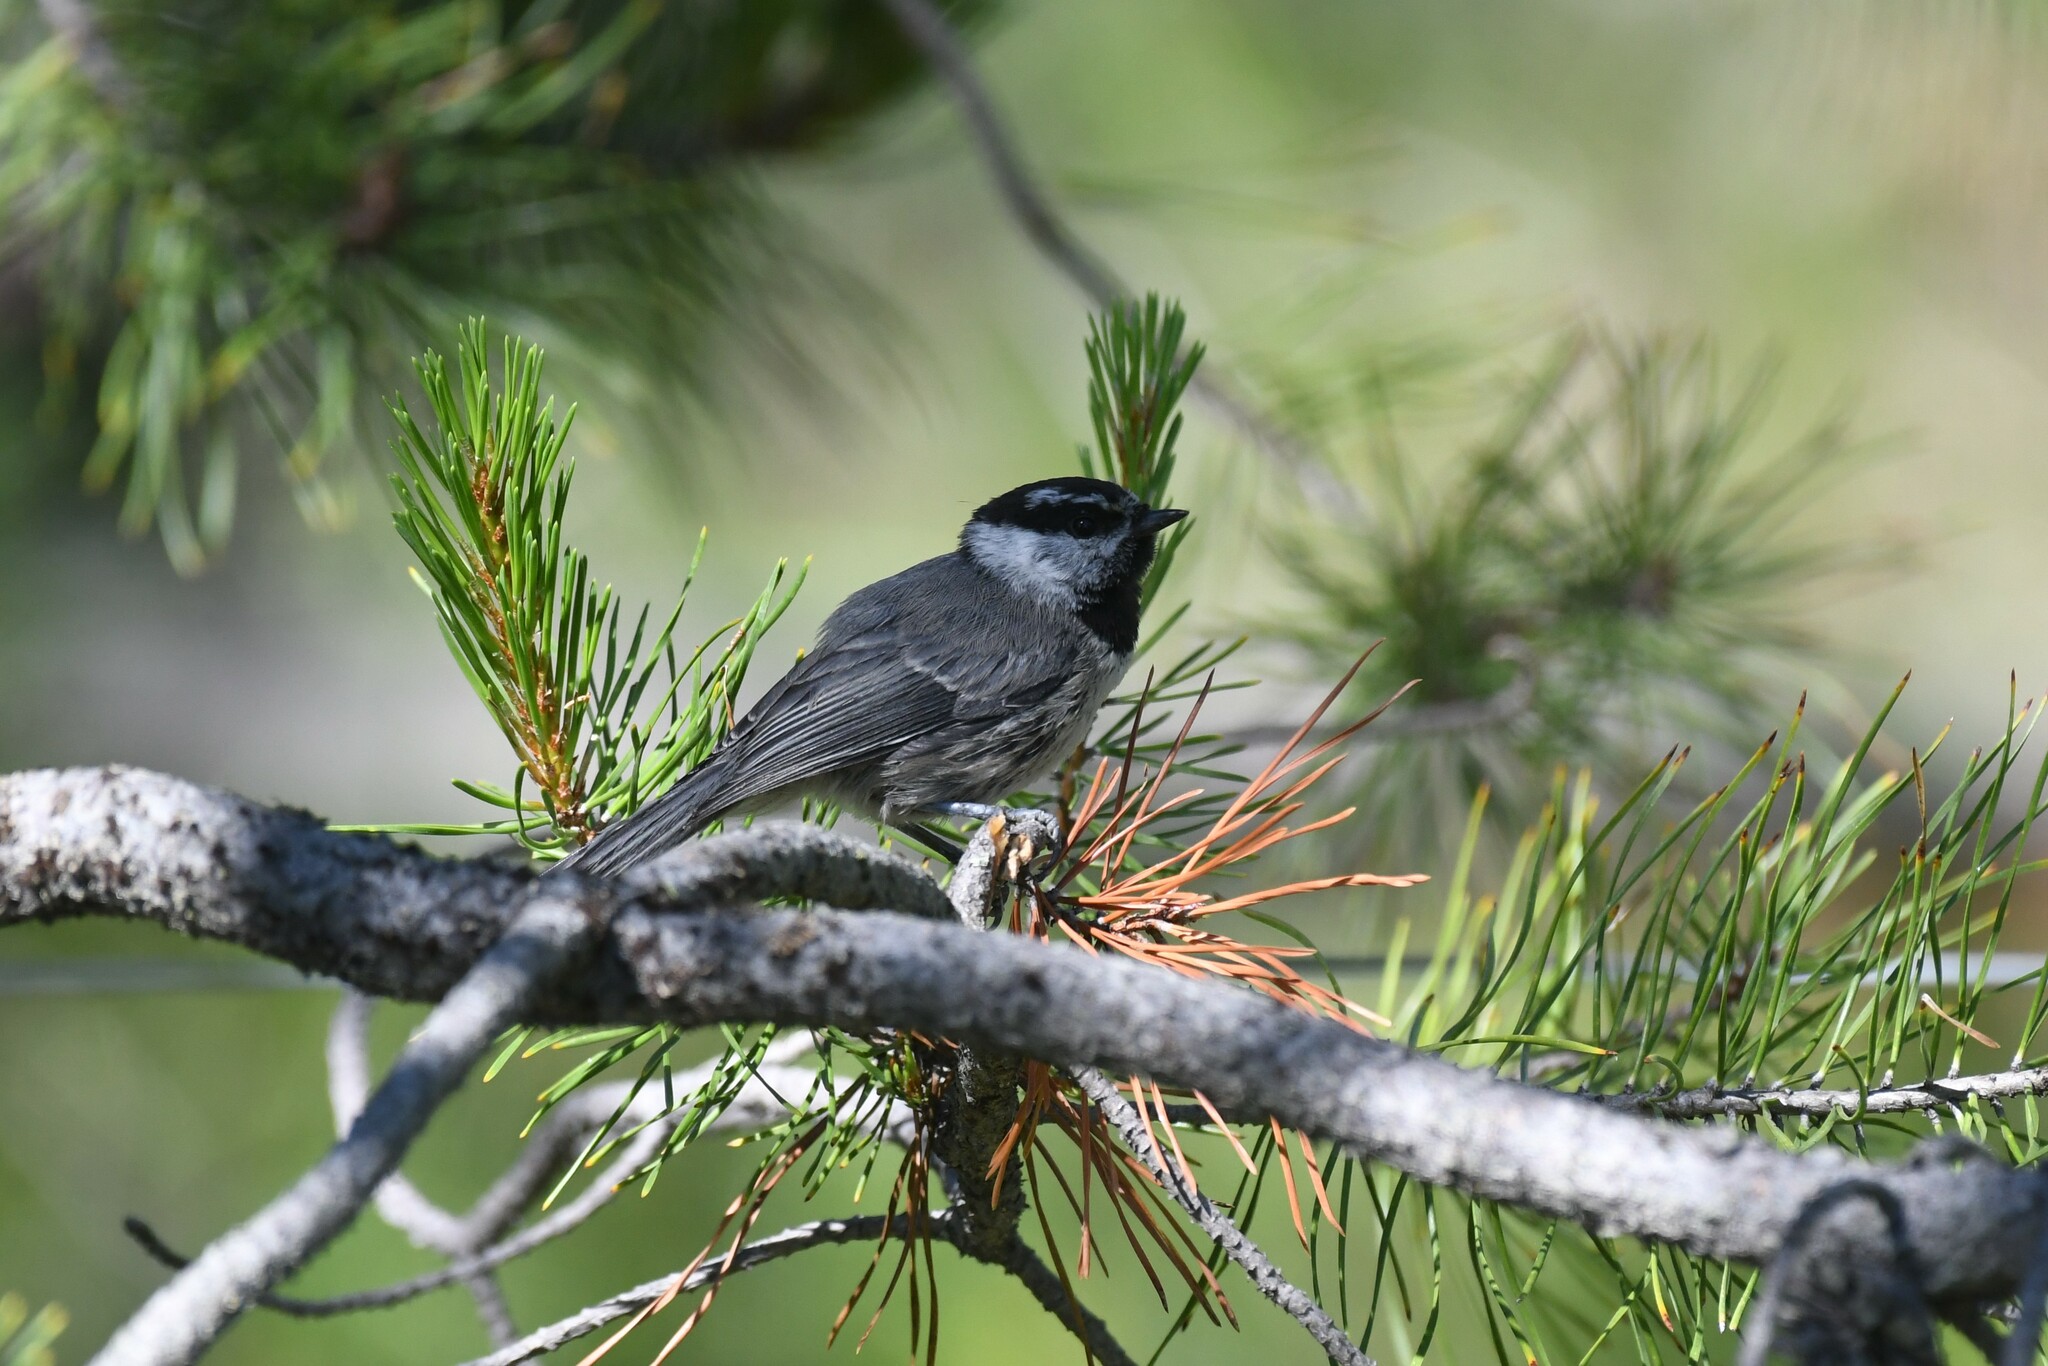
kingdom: Animalia
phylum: Chordata
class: Aves
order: Passeriformes
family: Paridae
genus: Poecile
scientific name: Poecile gambeli
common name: Mountain chickadee
